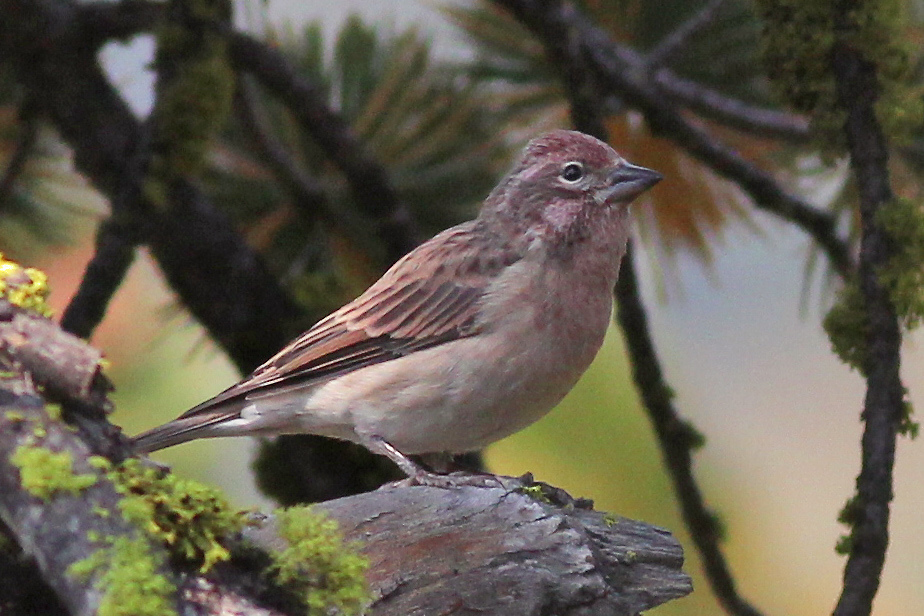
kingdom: Animalia
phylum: Chordata
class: Aves
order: Passeriformes
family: Fringillidae
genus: Haemorhous
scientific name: Haemorhous cassinii
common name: Cassin's finch
